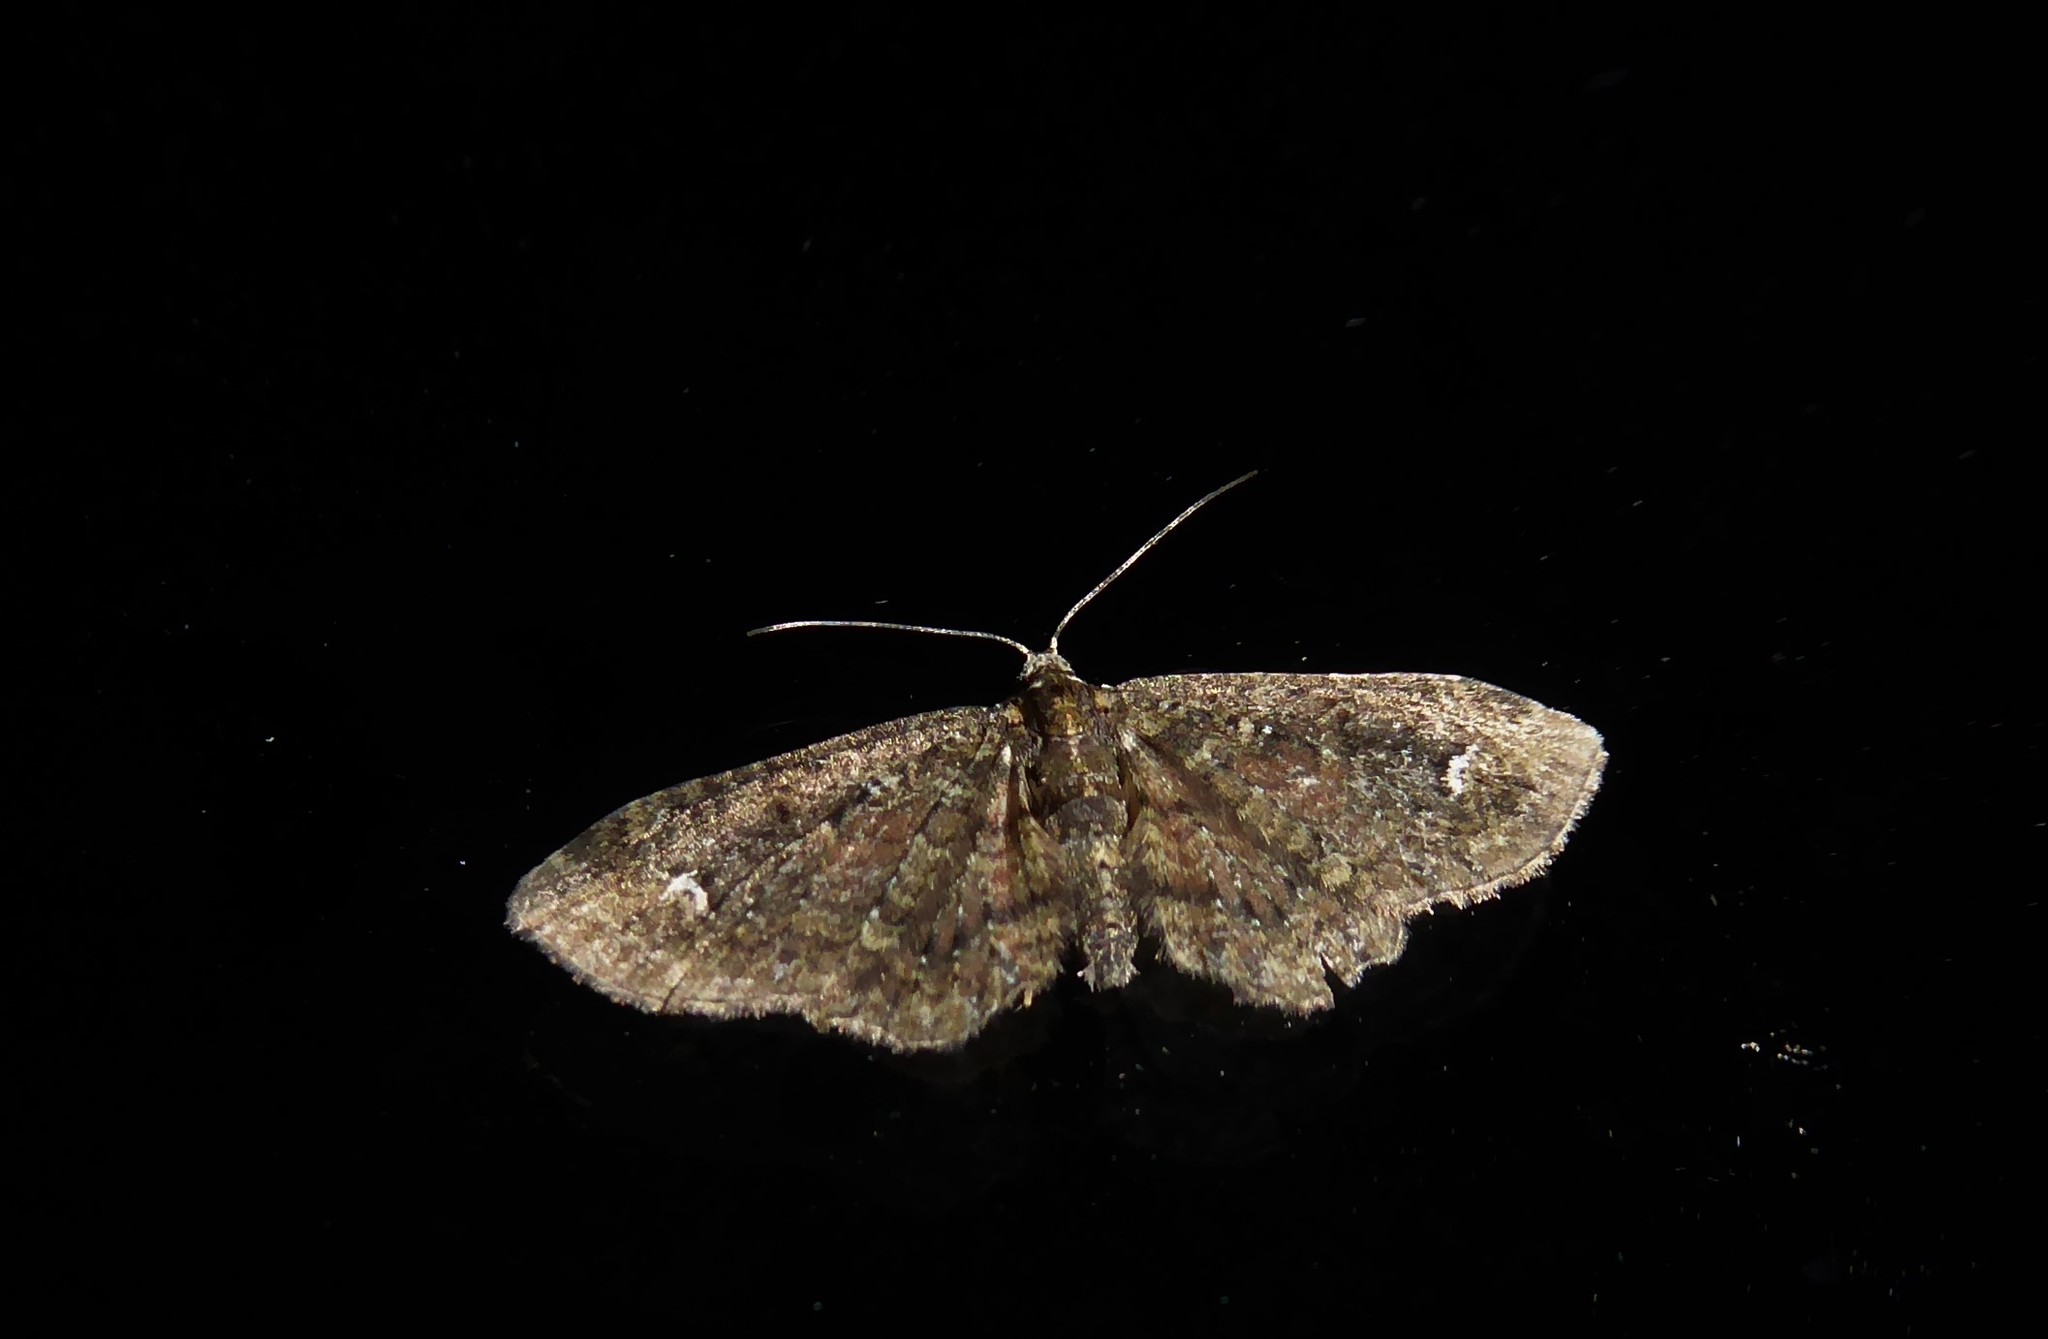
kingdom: Animalia
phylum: Arthropoda
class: Insecta
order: Lepidoptera
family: Geometridae
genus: Pasiphilodes
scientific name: Pasiphilodes testulata
